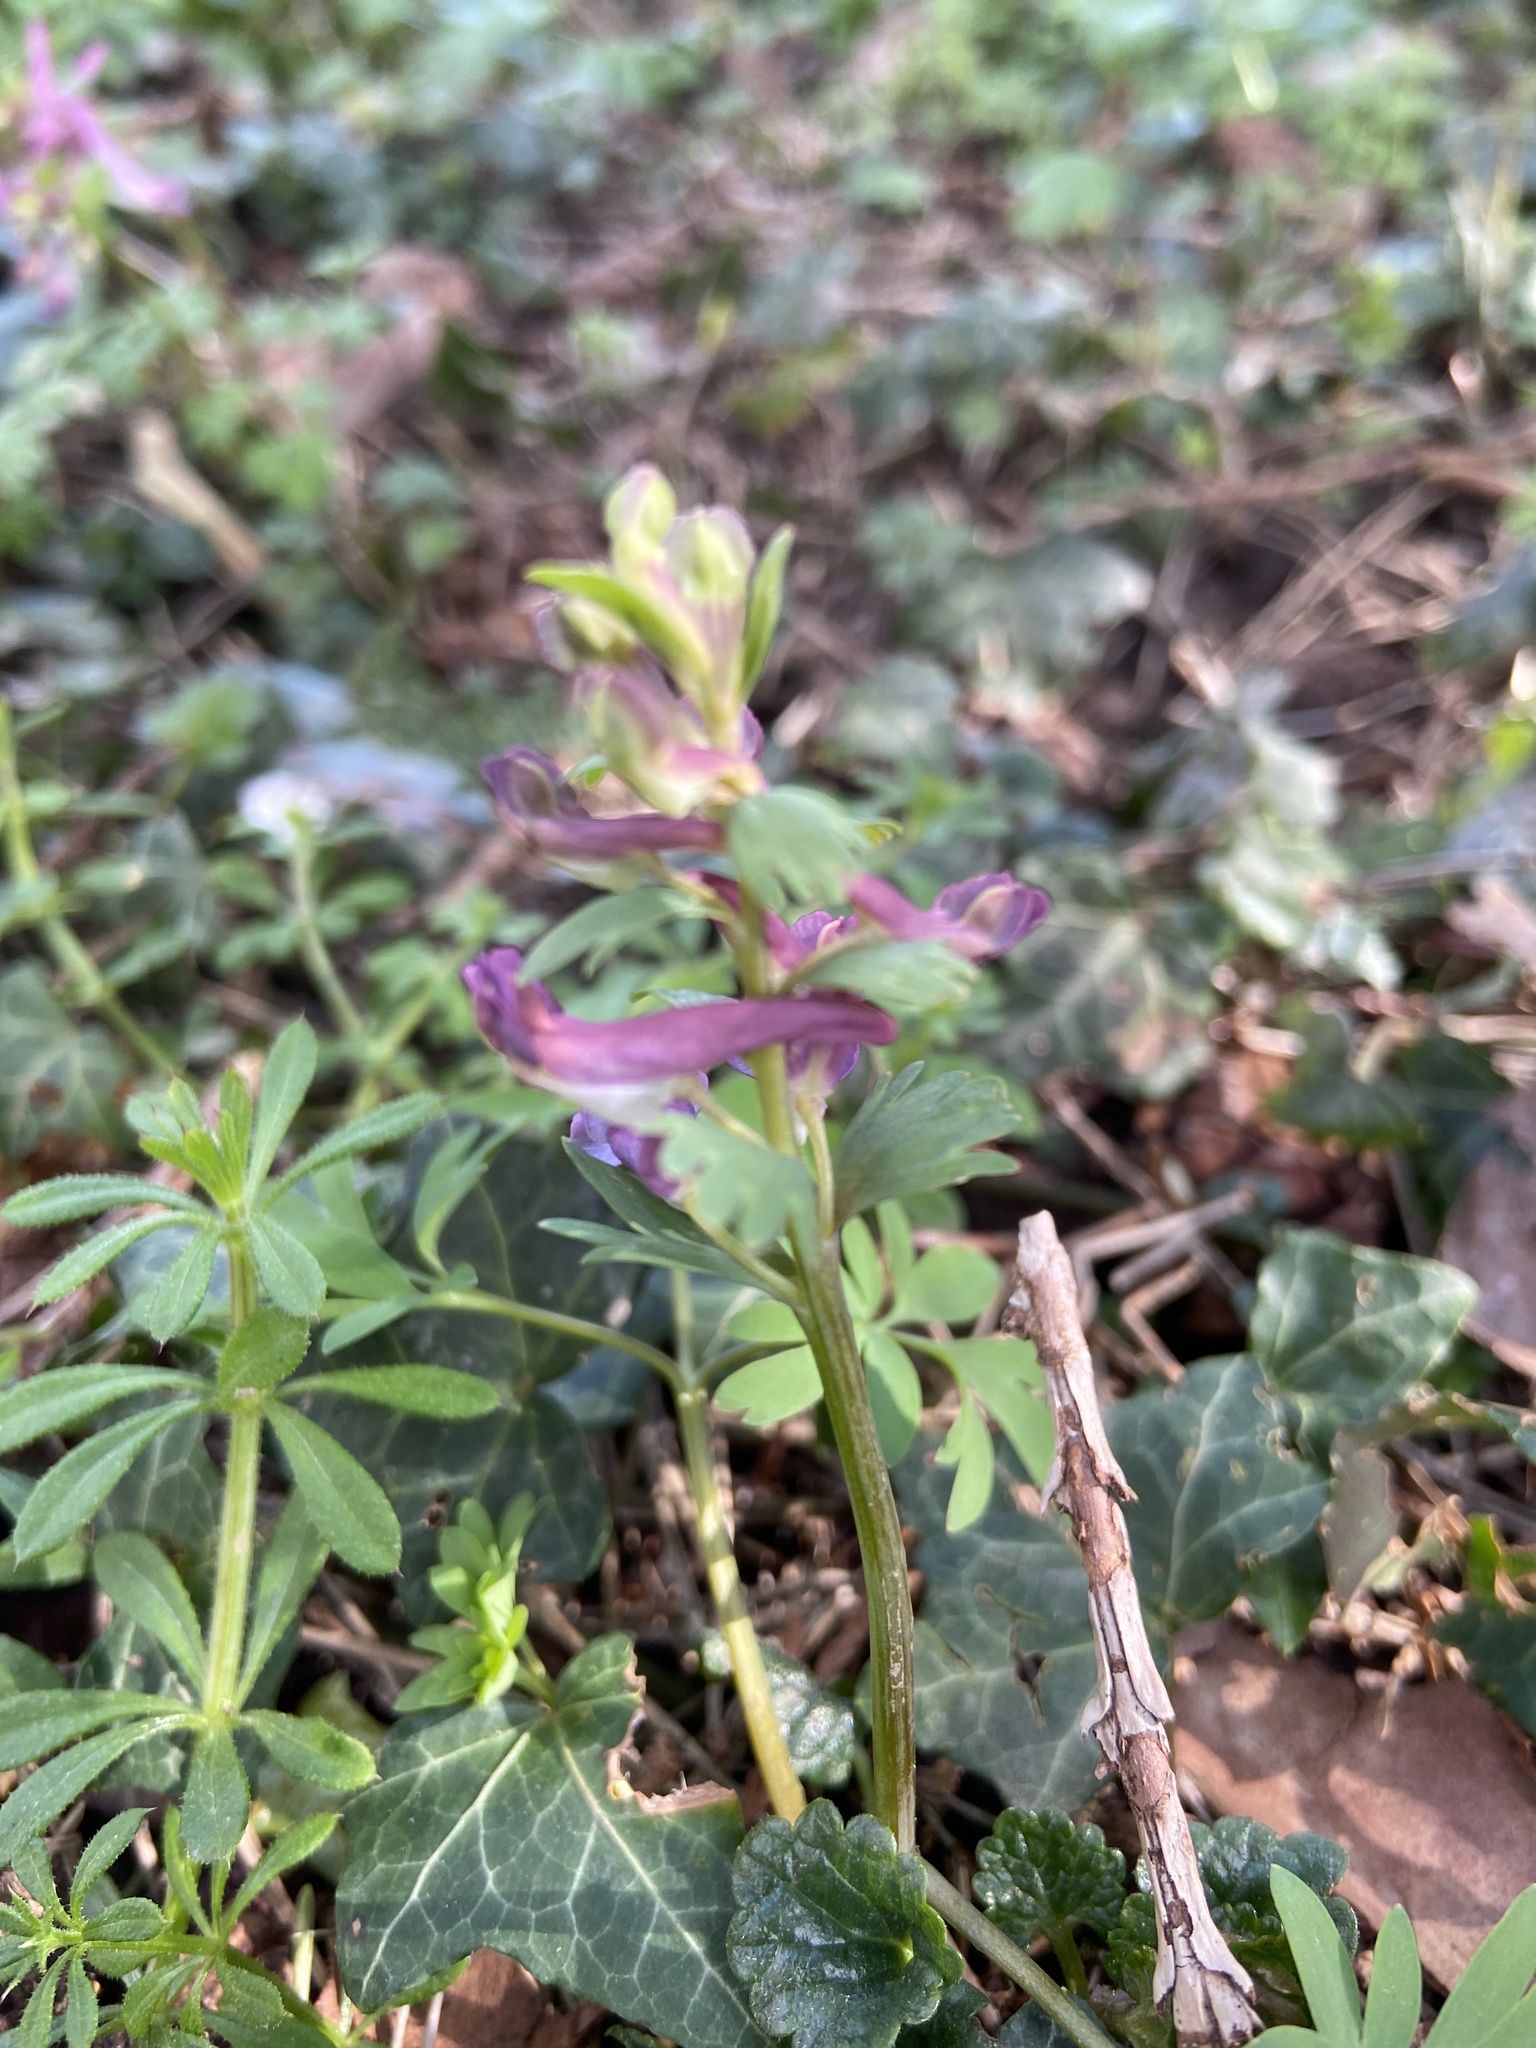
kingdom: Plantae
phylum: Tracheophyta
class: Magnoliopsida
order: Ranunculales
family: Papaveraceae
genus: Corydalis
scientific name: Corydalis solida
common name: Bird-in-a-bush
